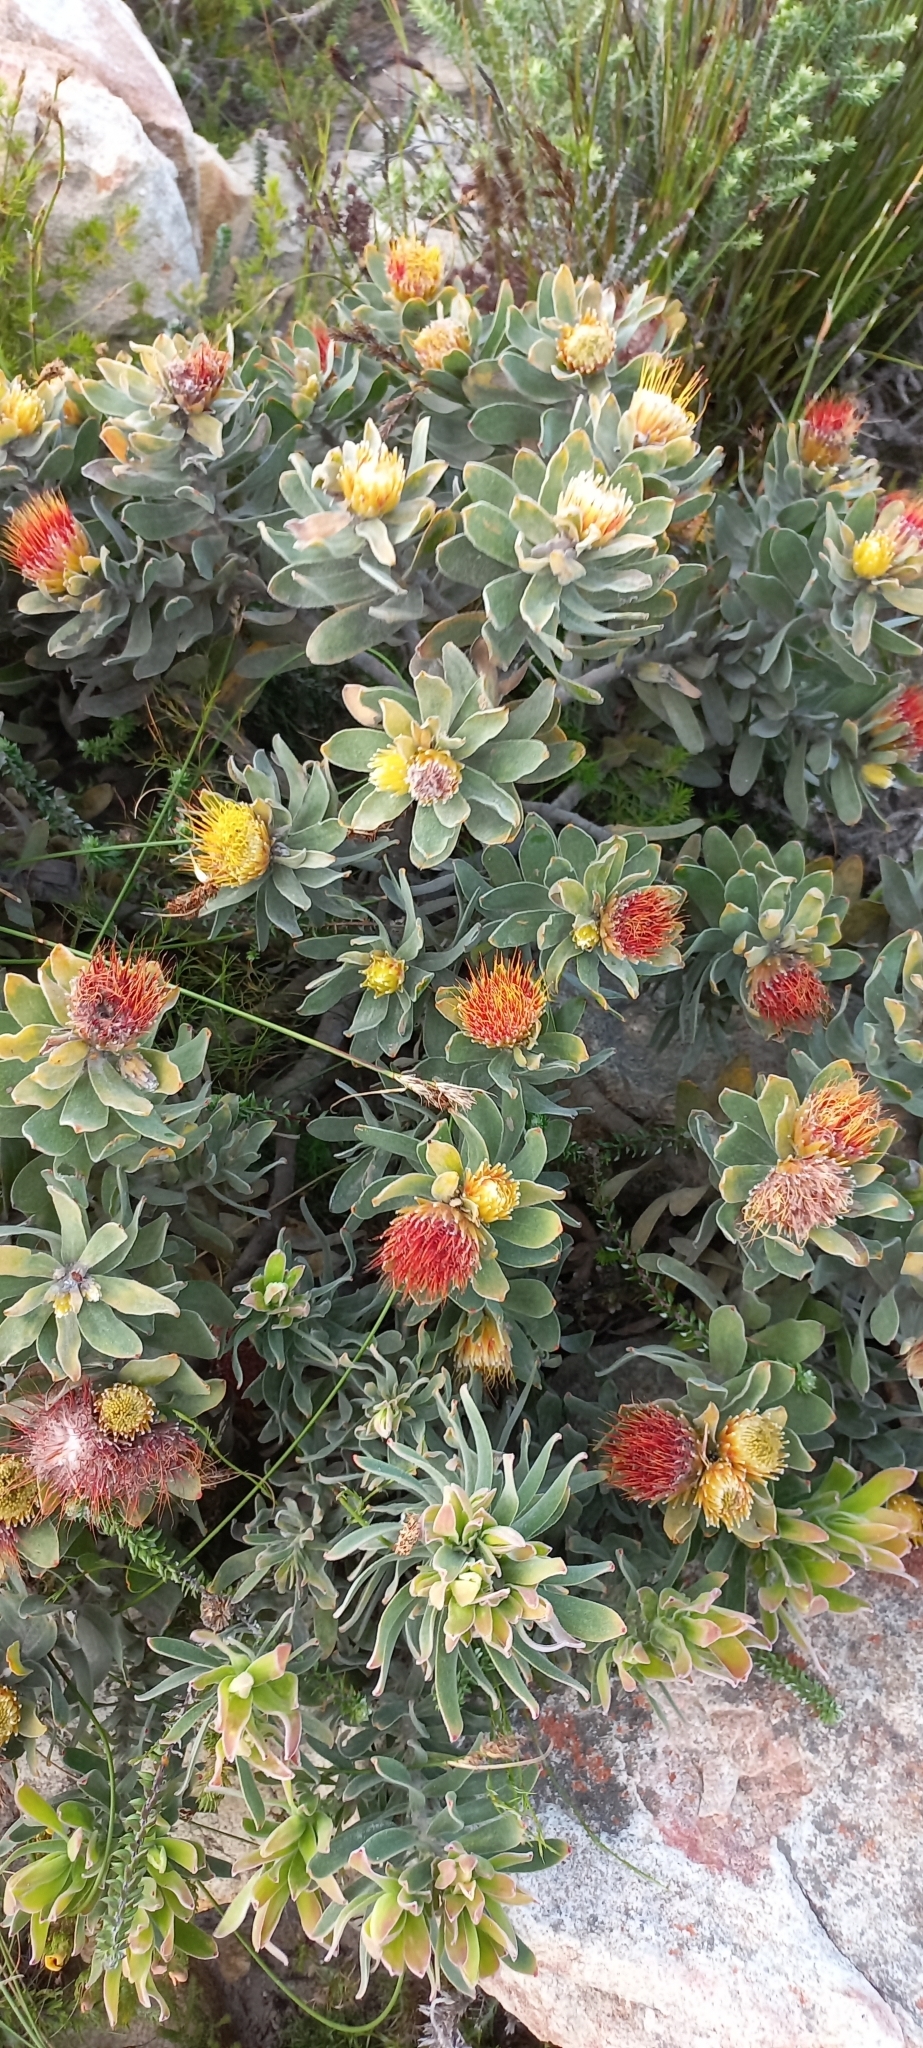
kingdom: Plantae
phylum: Tracheophyta
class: Magnoliopsida
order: Proteales
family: Proteaceae
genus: Leucospermum
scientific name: Leucospermum oleifolium
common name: Matches
